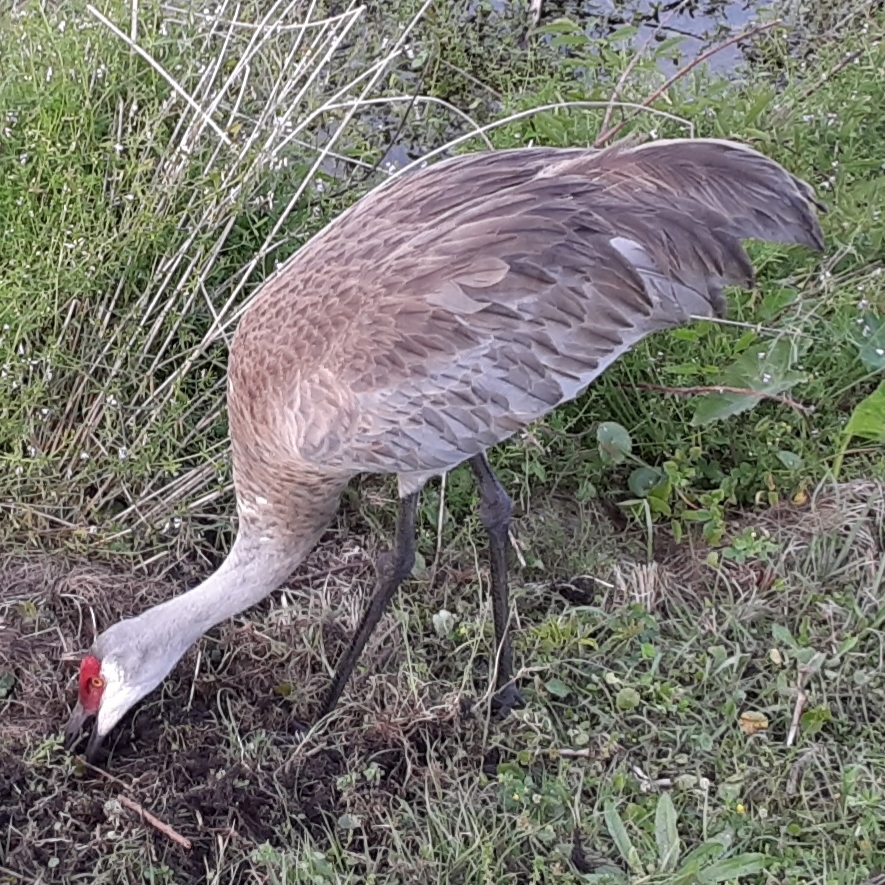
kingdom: Animalia
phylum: Chordata
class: Aves
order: Gruiformes
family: Gruidae
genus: Grus
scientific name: Grus canadensis
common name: Sandhill crane
